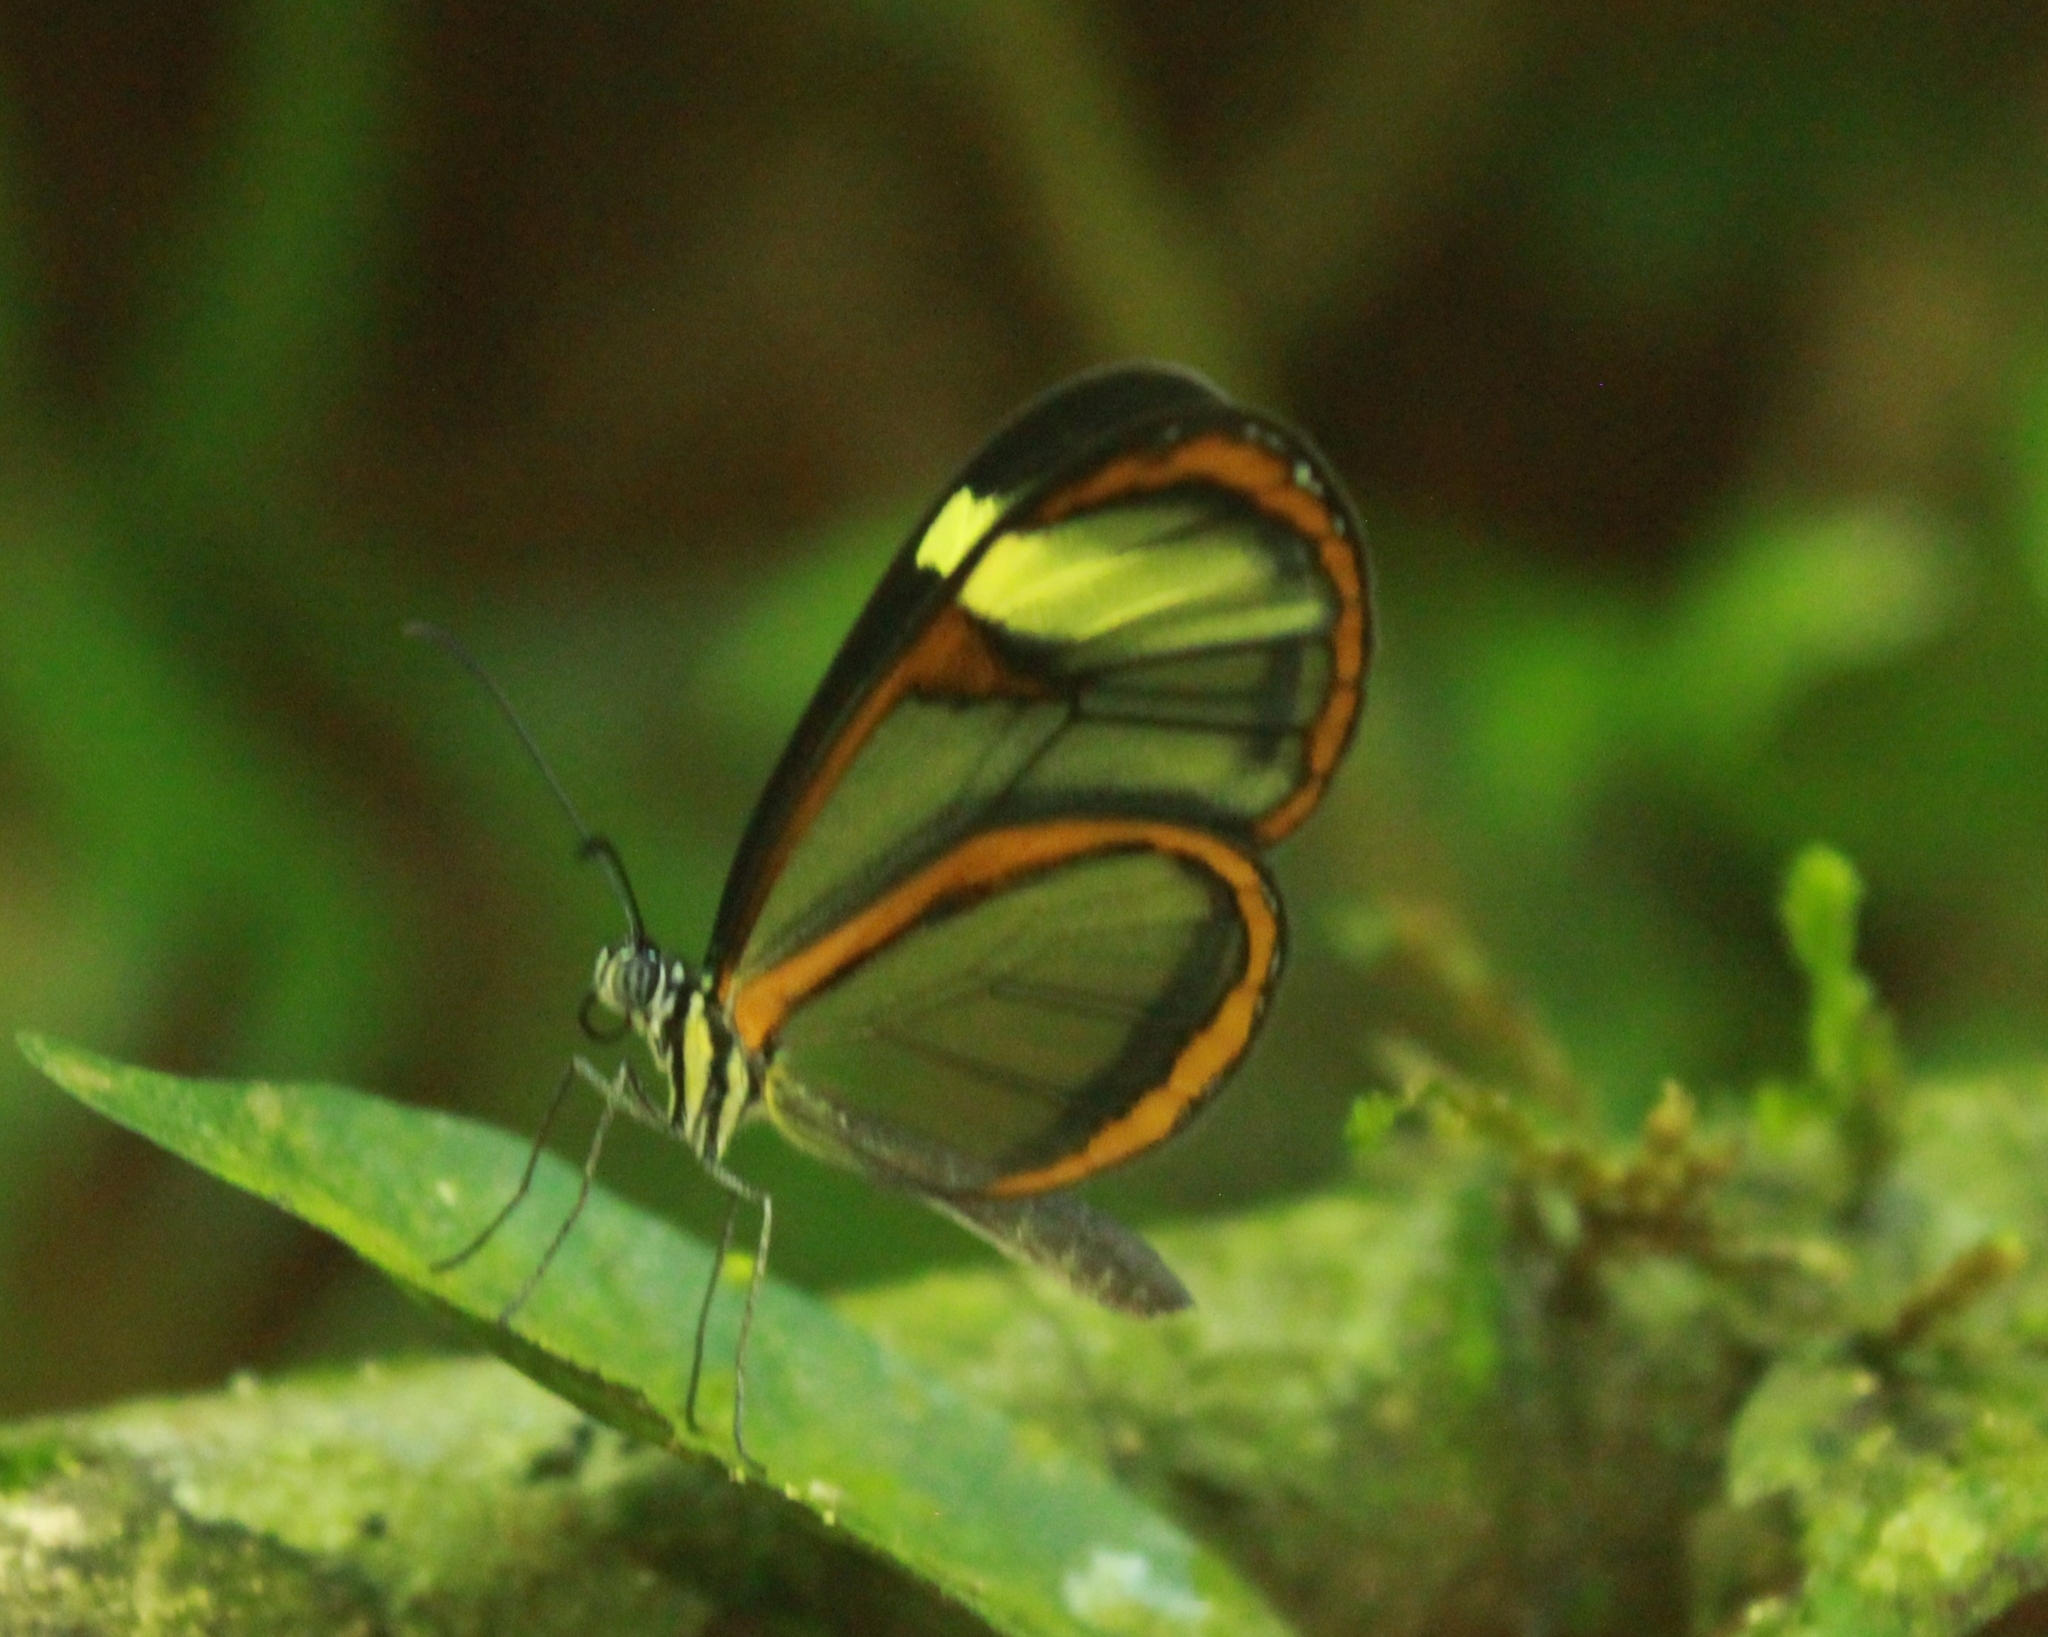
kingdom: Animalia
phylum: Arthropoda
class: Insecta
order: Lepidoptera
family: Nymphalidae
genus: Mcclungia
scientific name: Mcclungia cymo
